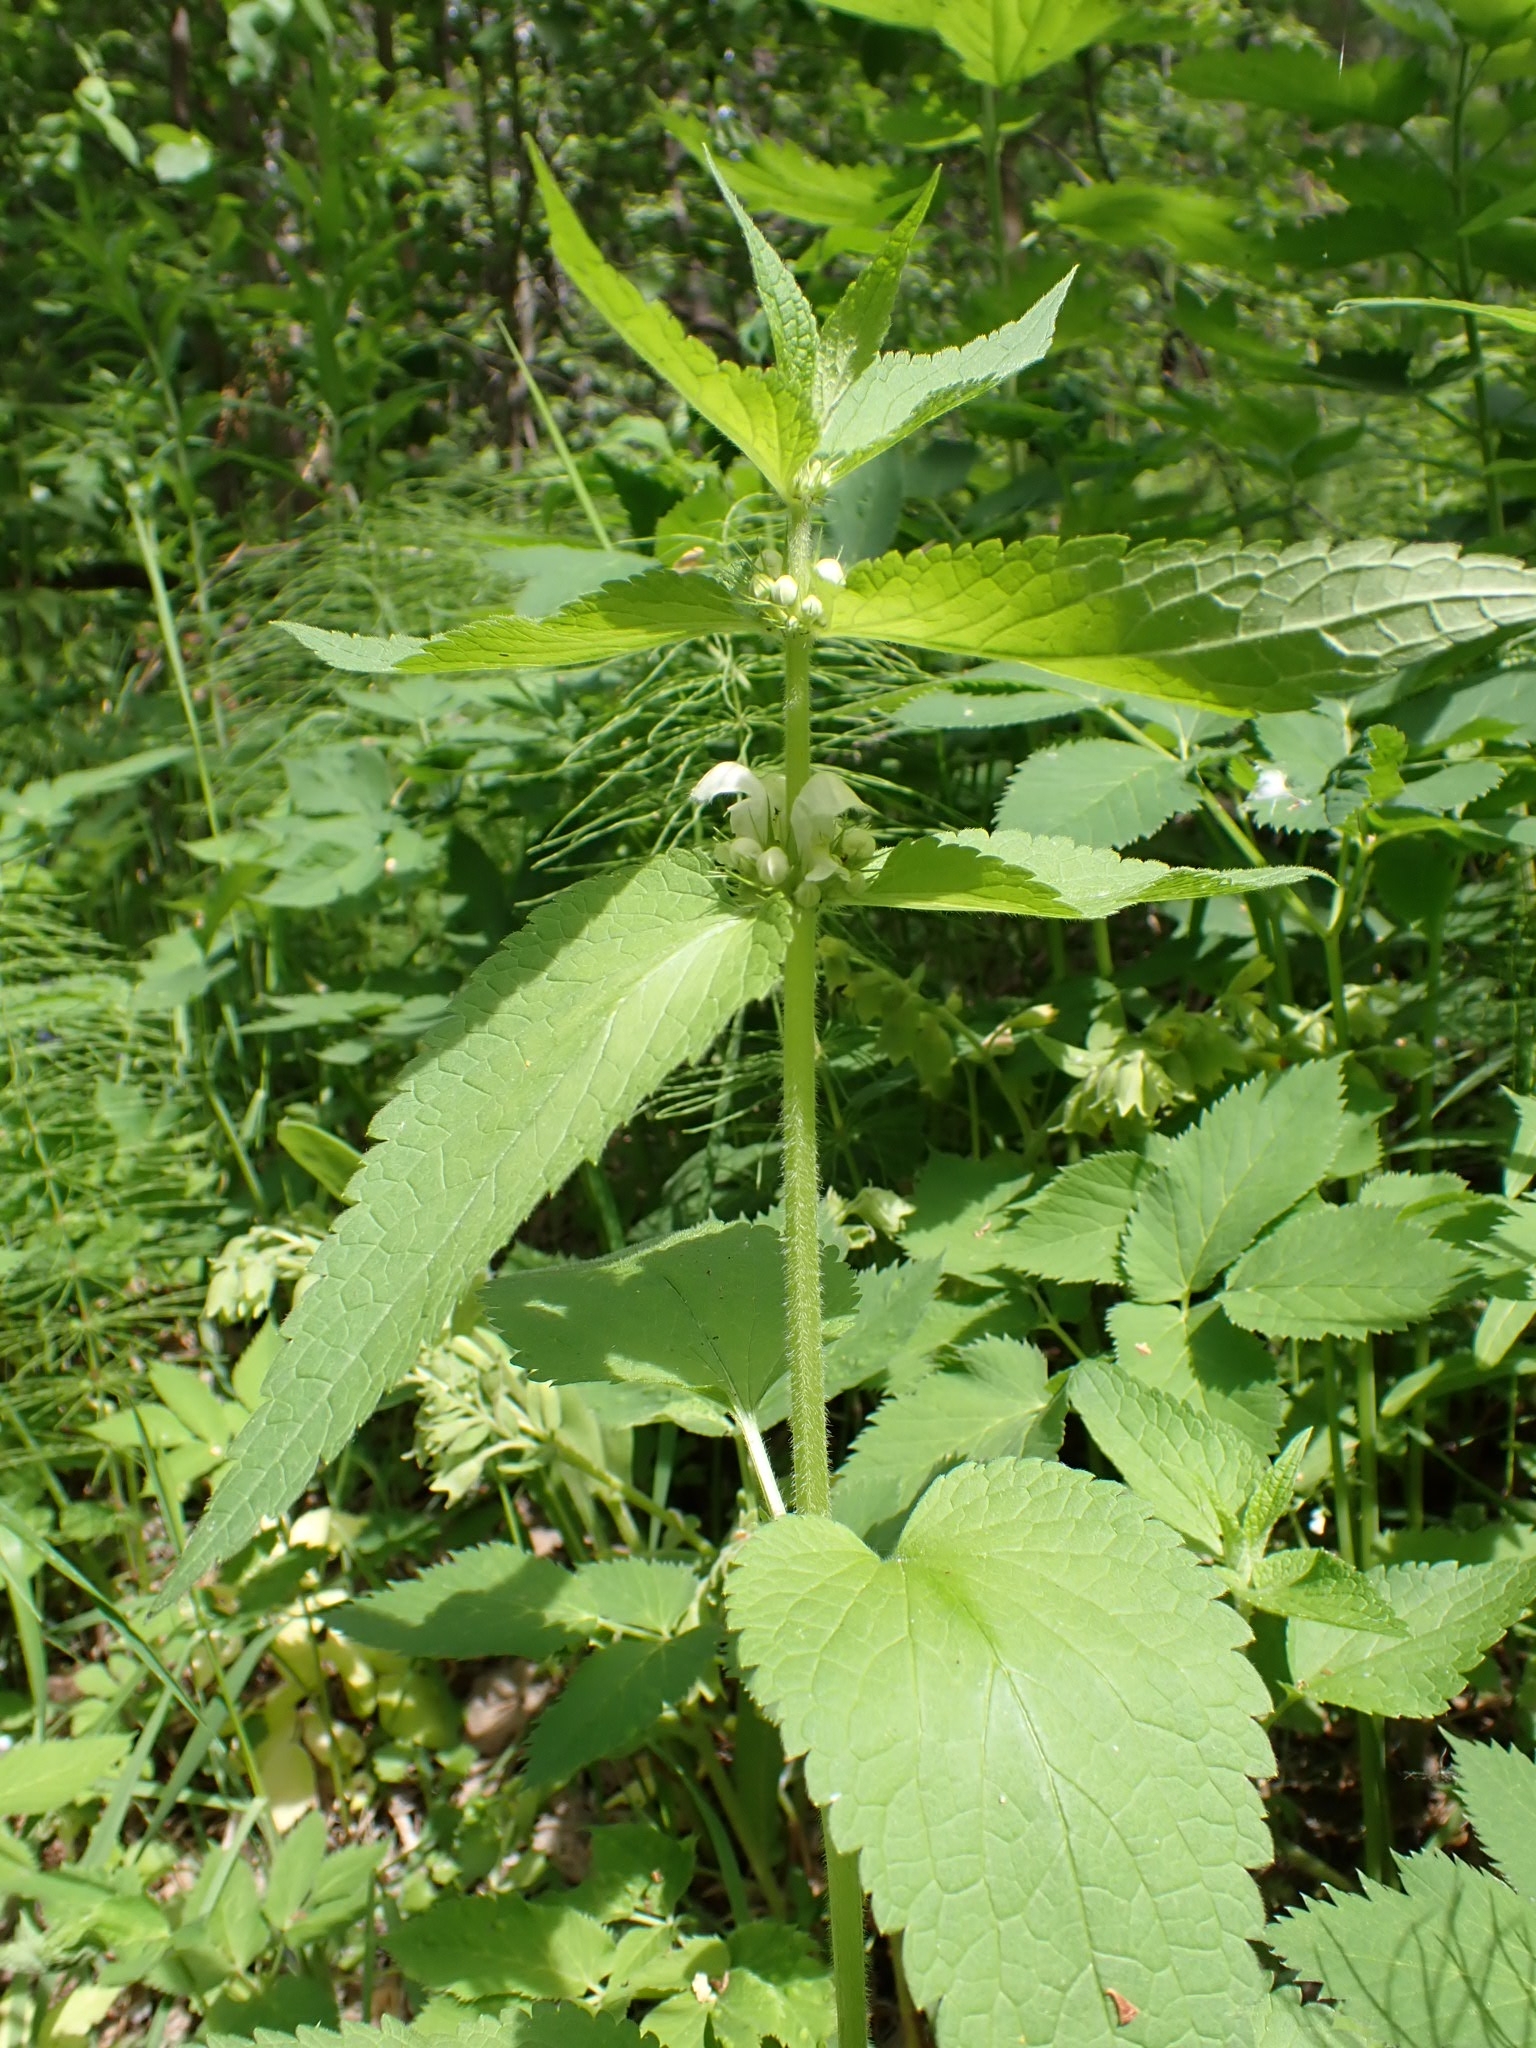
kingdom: Plantae
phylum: Tracheophyta
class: Magnoliopsida
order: Lamiales
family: Lamiaceae
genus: Lamium
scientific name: Lamium album
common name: White dead-nettle
